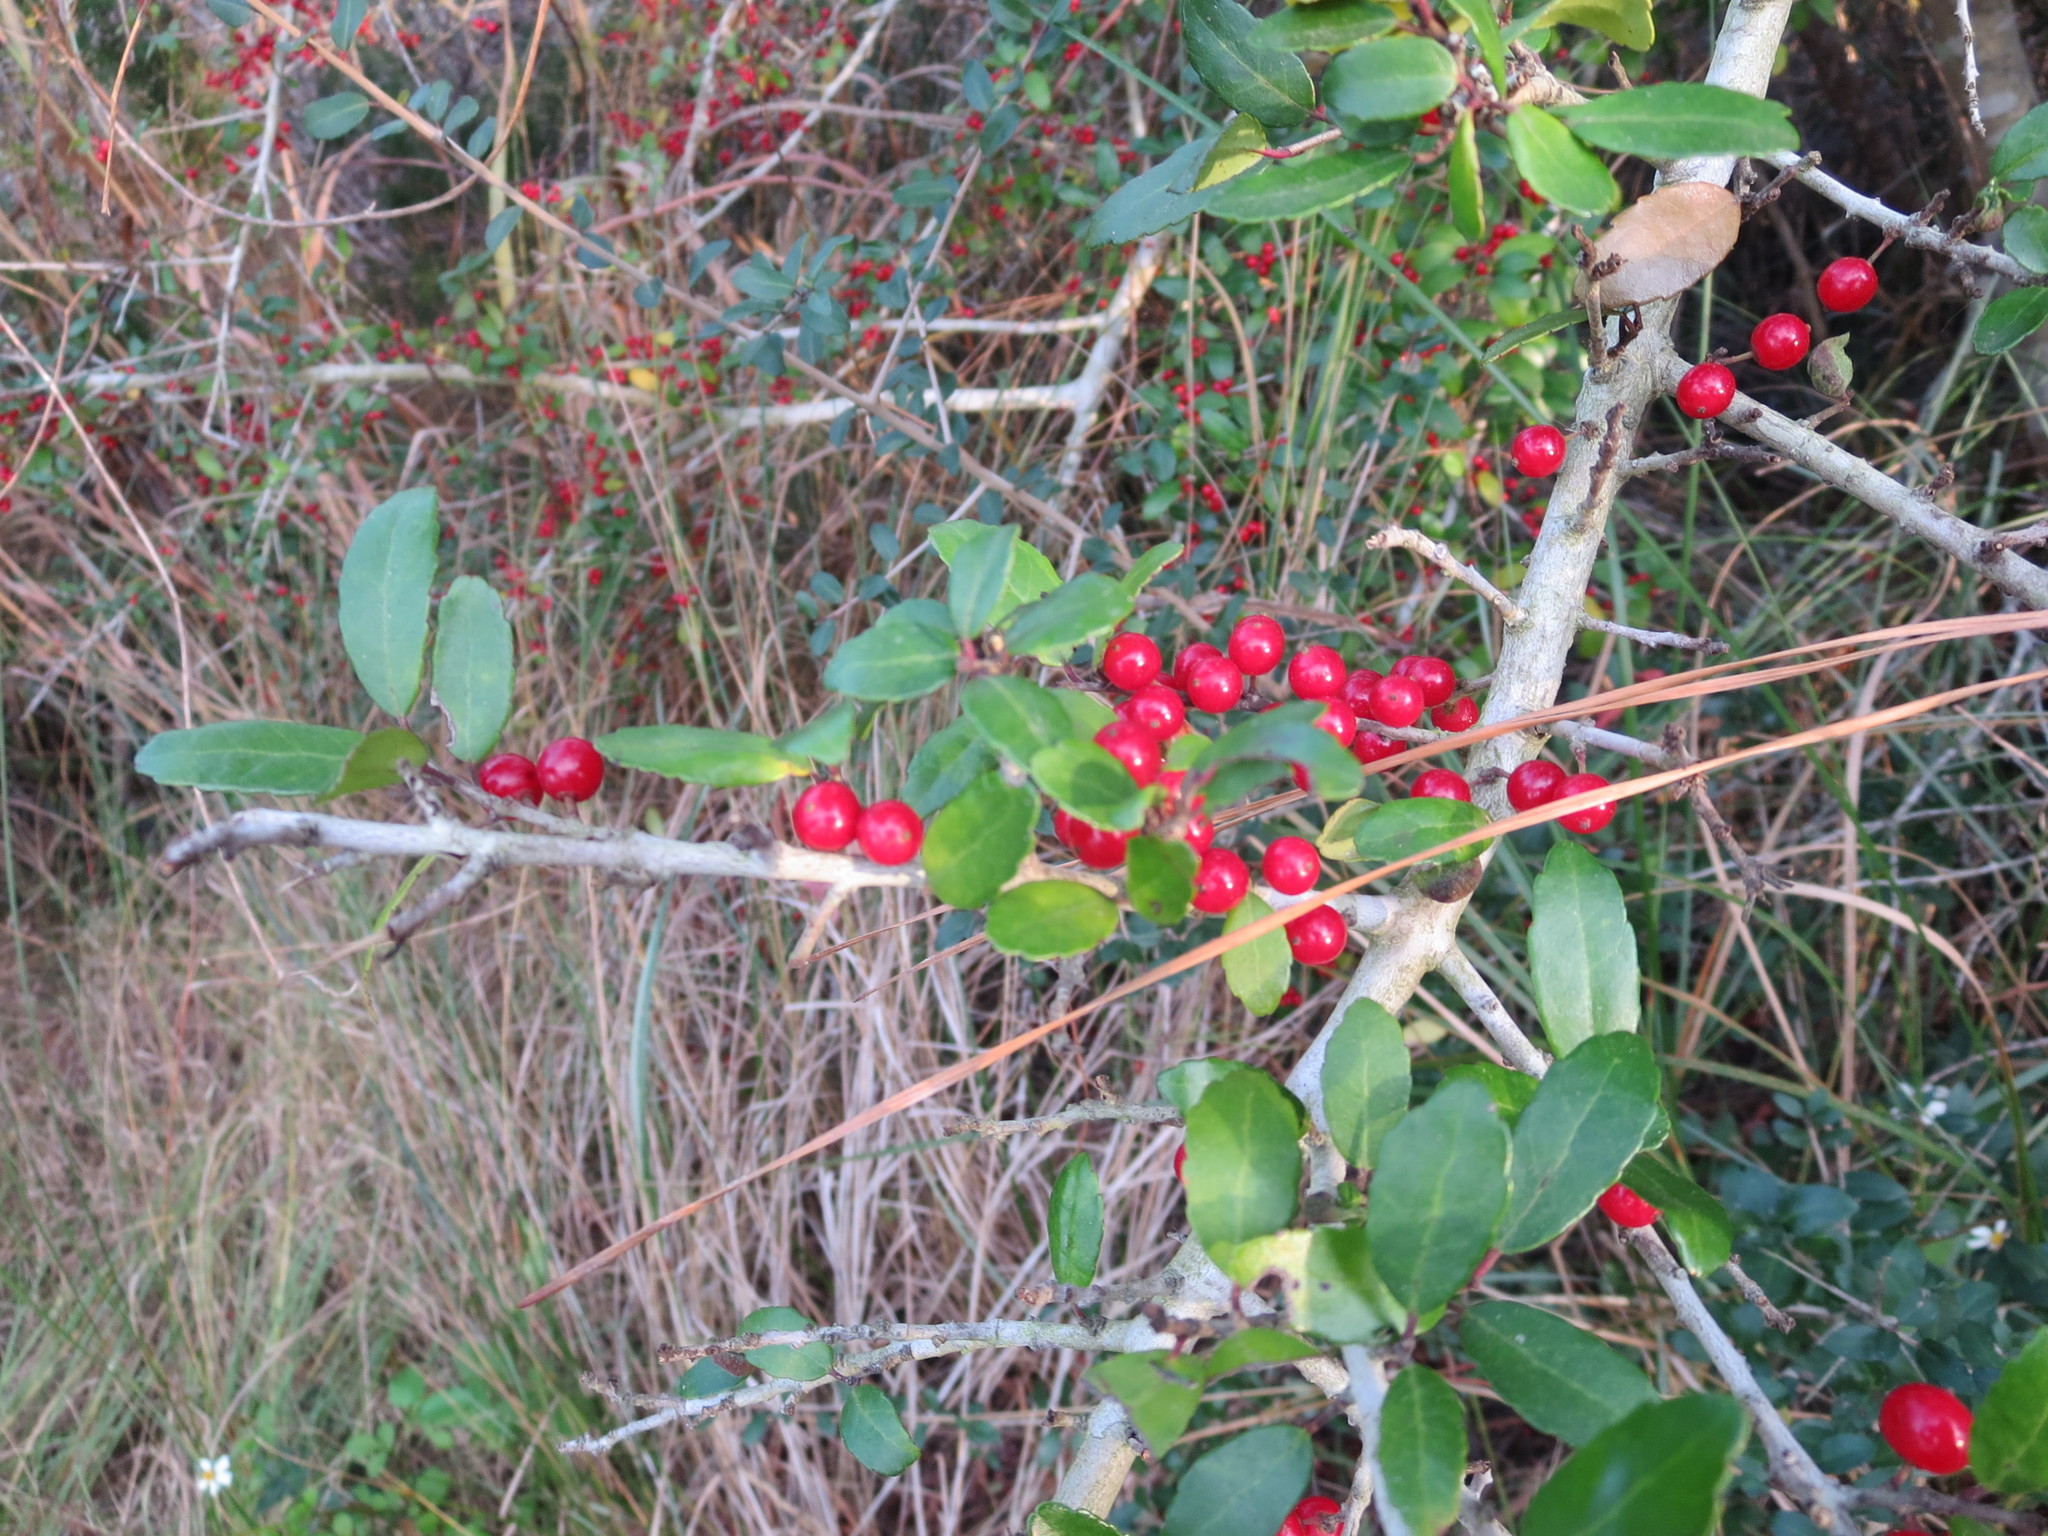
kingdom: Plantae
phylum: Tracheophyta
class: Magnoliopsida
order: Aquifoliales
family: Aquifoliaceae
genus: Ilex
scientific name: Ilex vomitoria
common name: Yaupon holly
